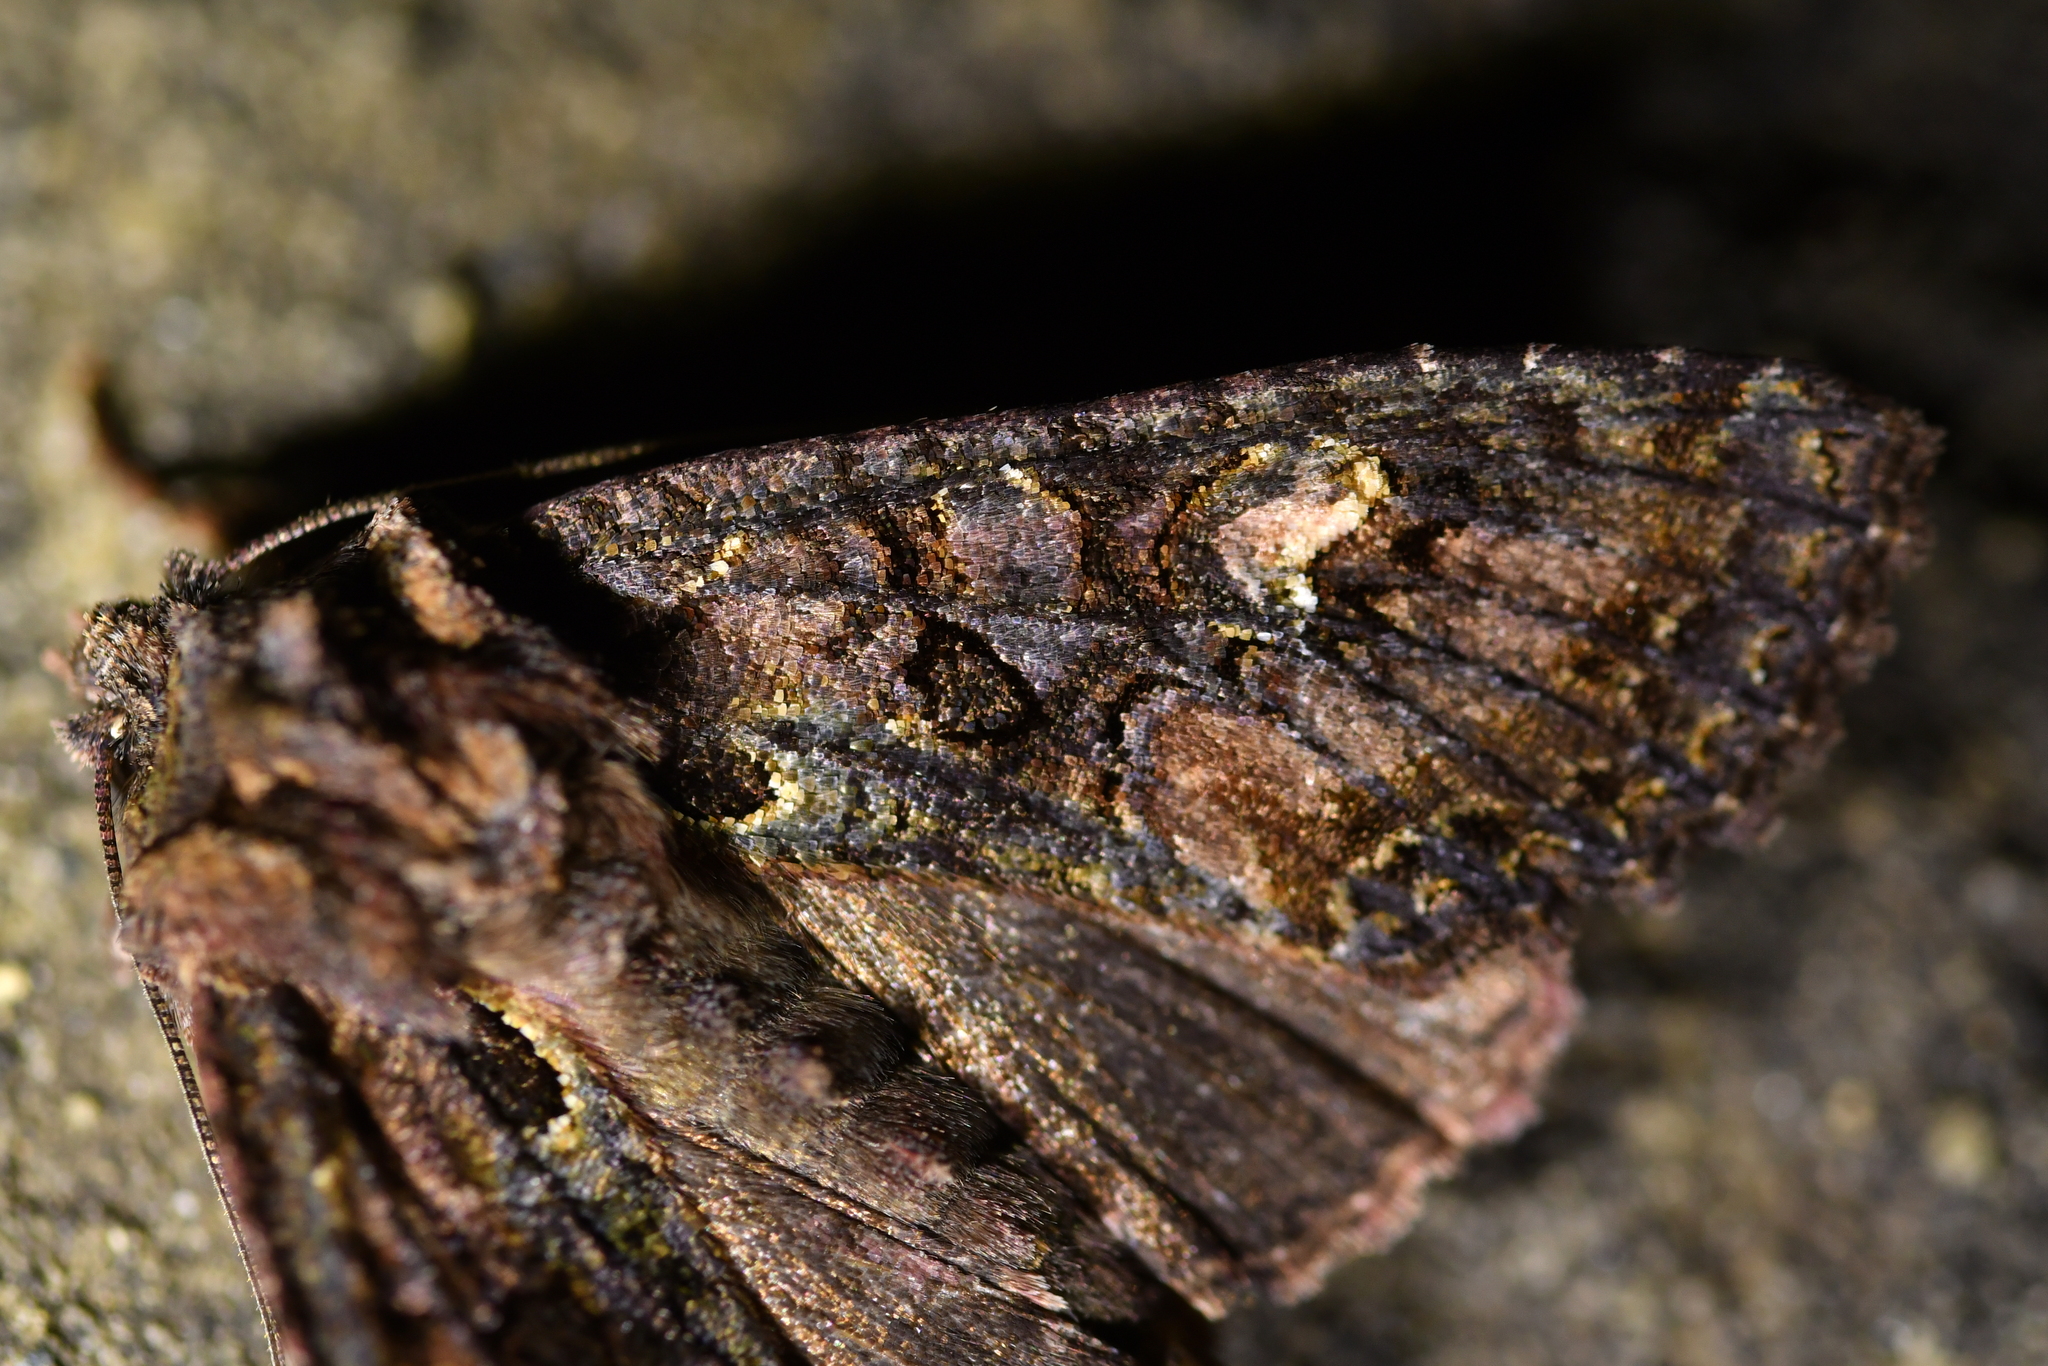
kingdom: Animalia
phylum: Arthropoda
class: Insecta
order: Lepidoptera
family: Noctuidae
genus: Meterana
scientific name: Meterana dotata
